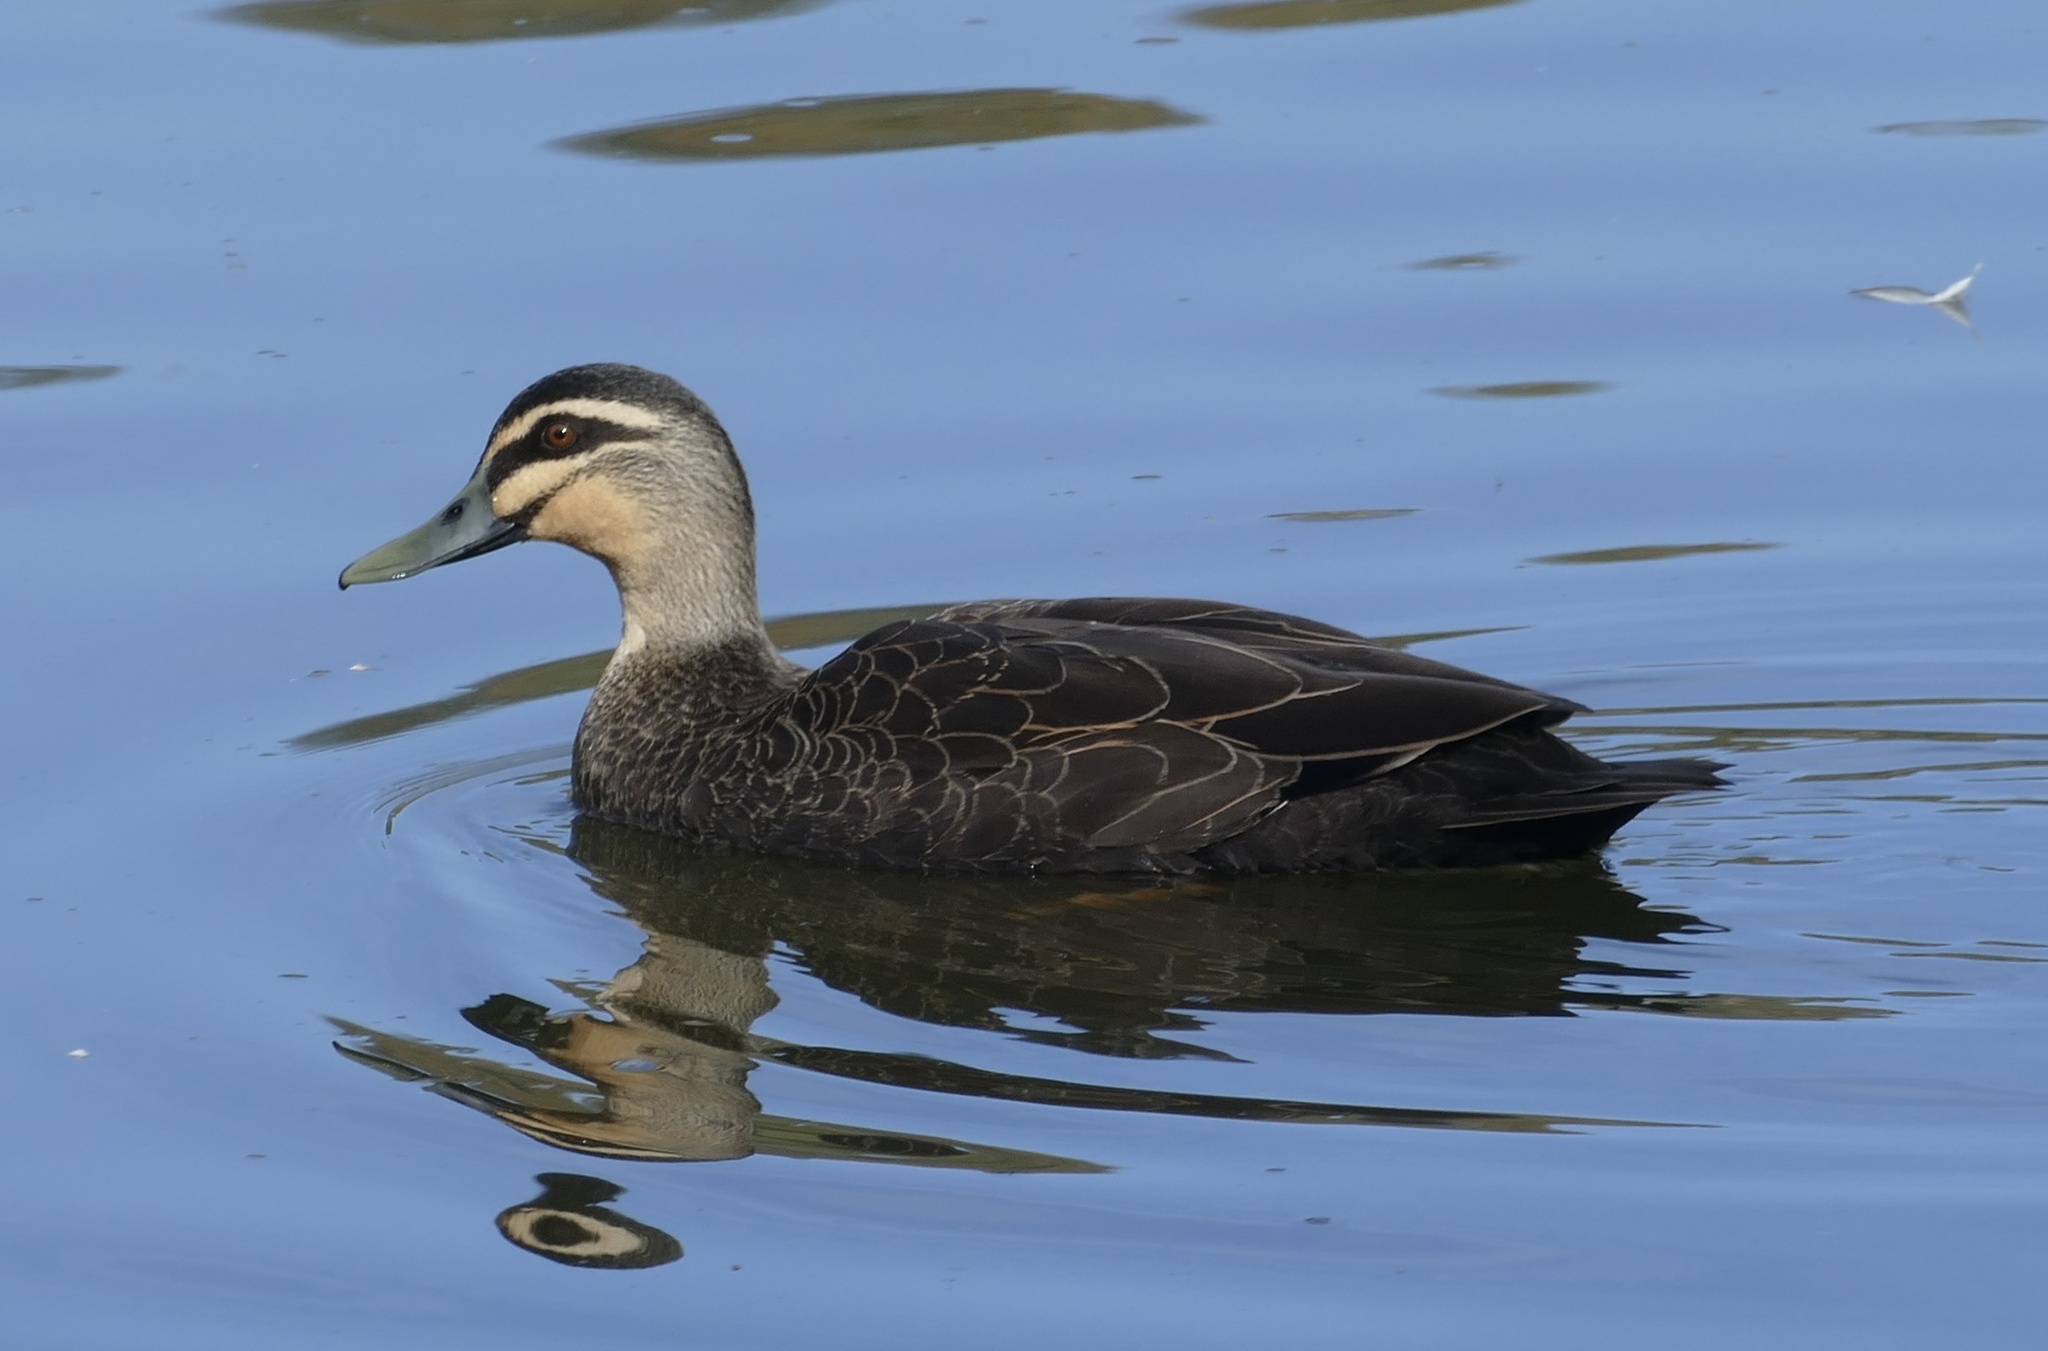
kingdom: Animalia
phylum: Chordata
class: Aves
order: Anseriformes
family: Anatidae
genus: Anas
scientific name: Anas
